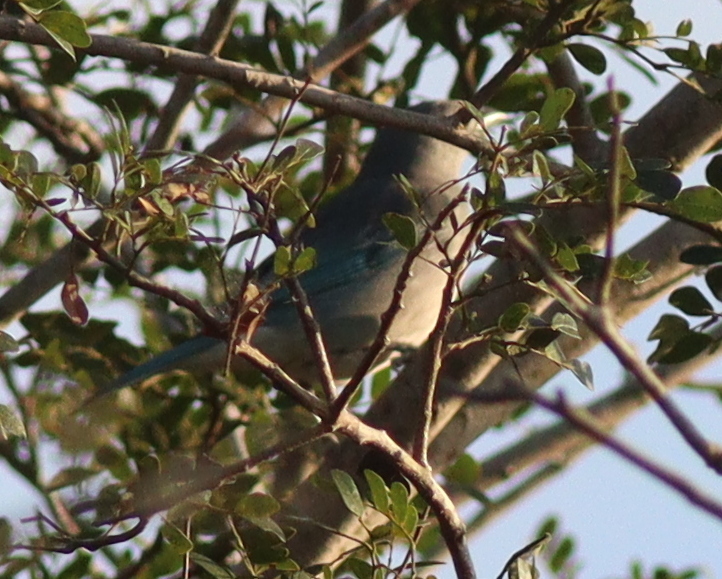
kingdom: Animalia
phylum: Chordata
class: Aves
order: Passeriformes
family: Thraupidae
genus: Thraupis
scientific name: Thraupis sayaca
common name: Sayaca tanager
